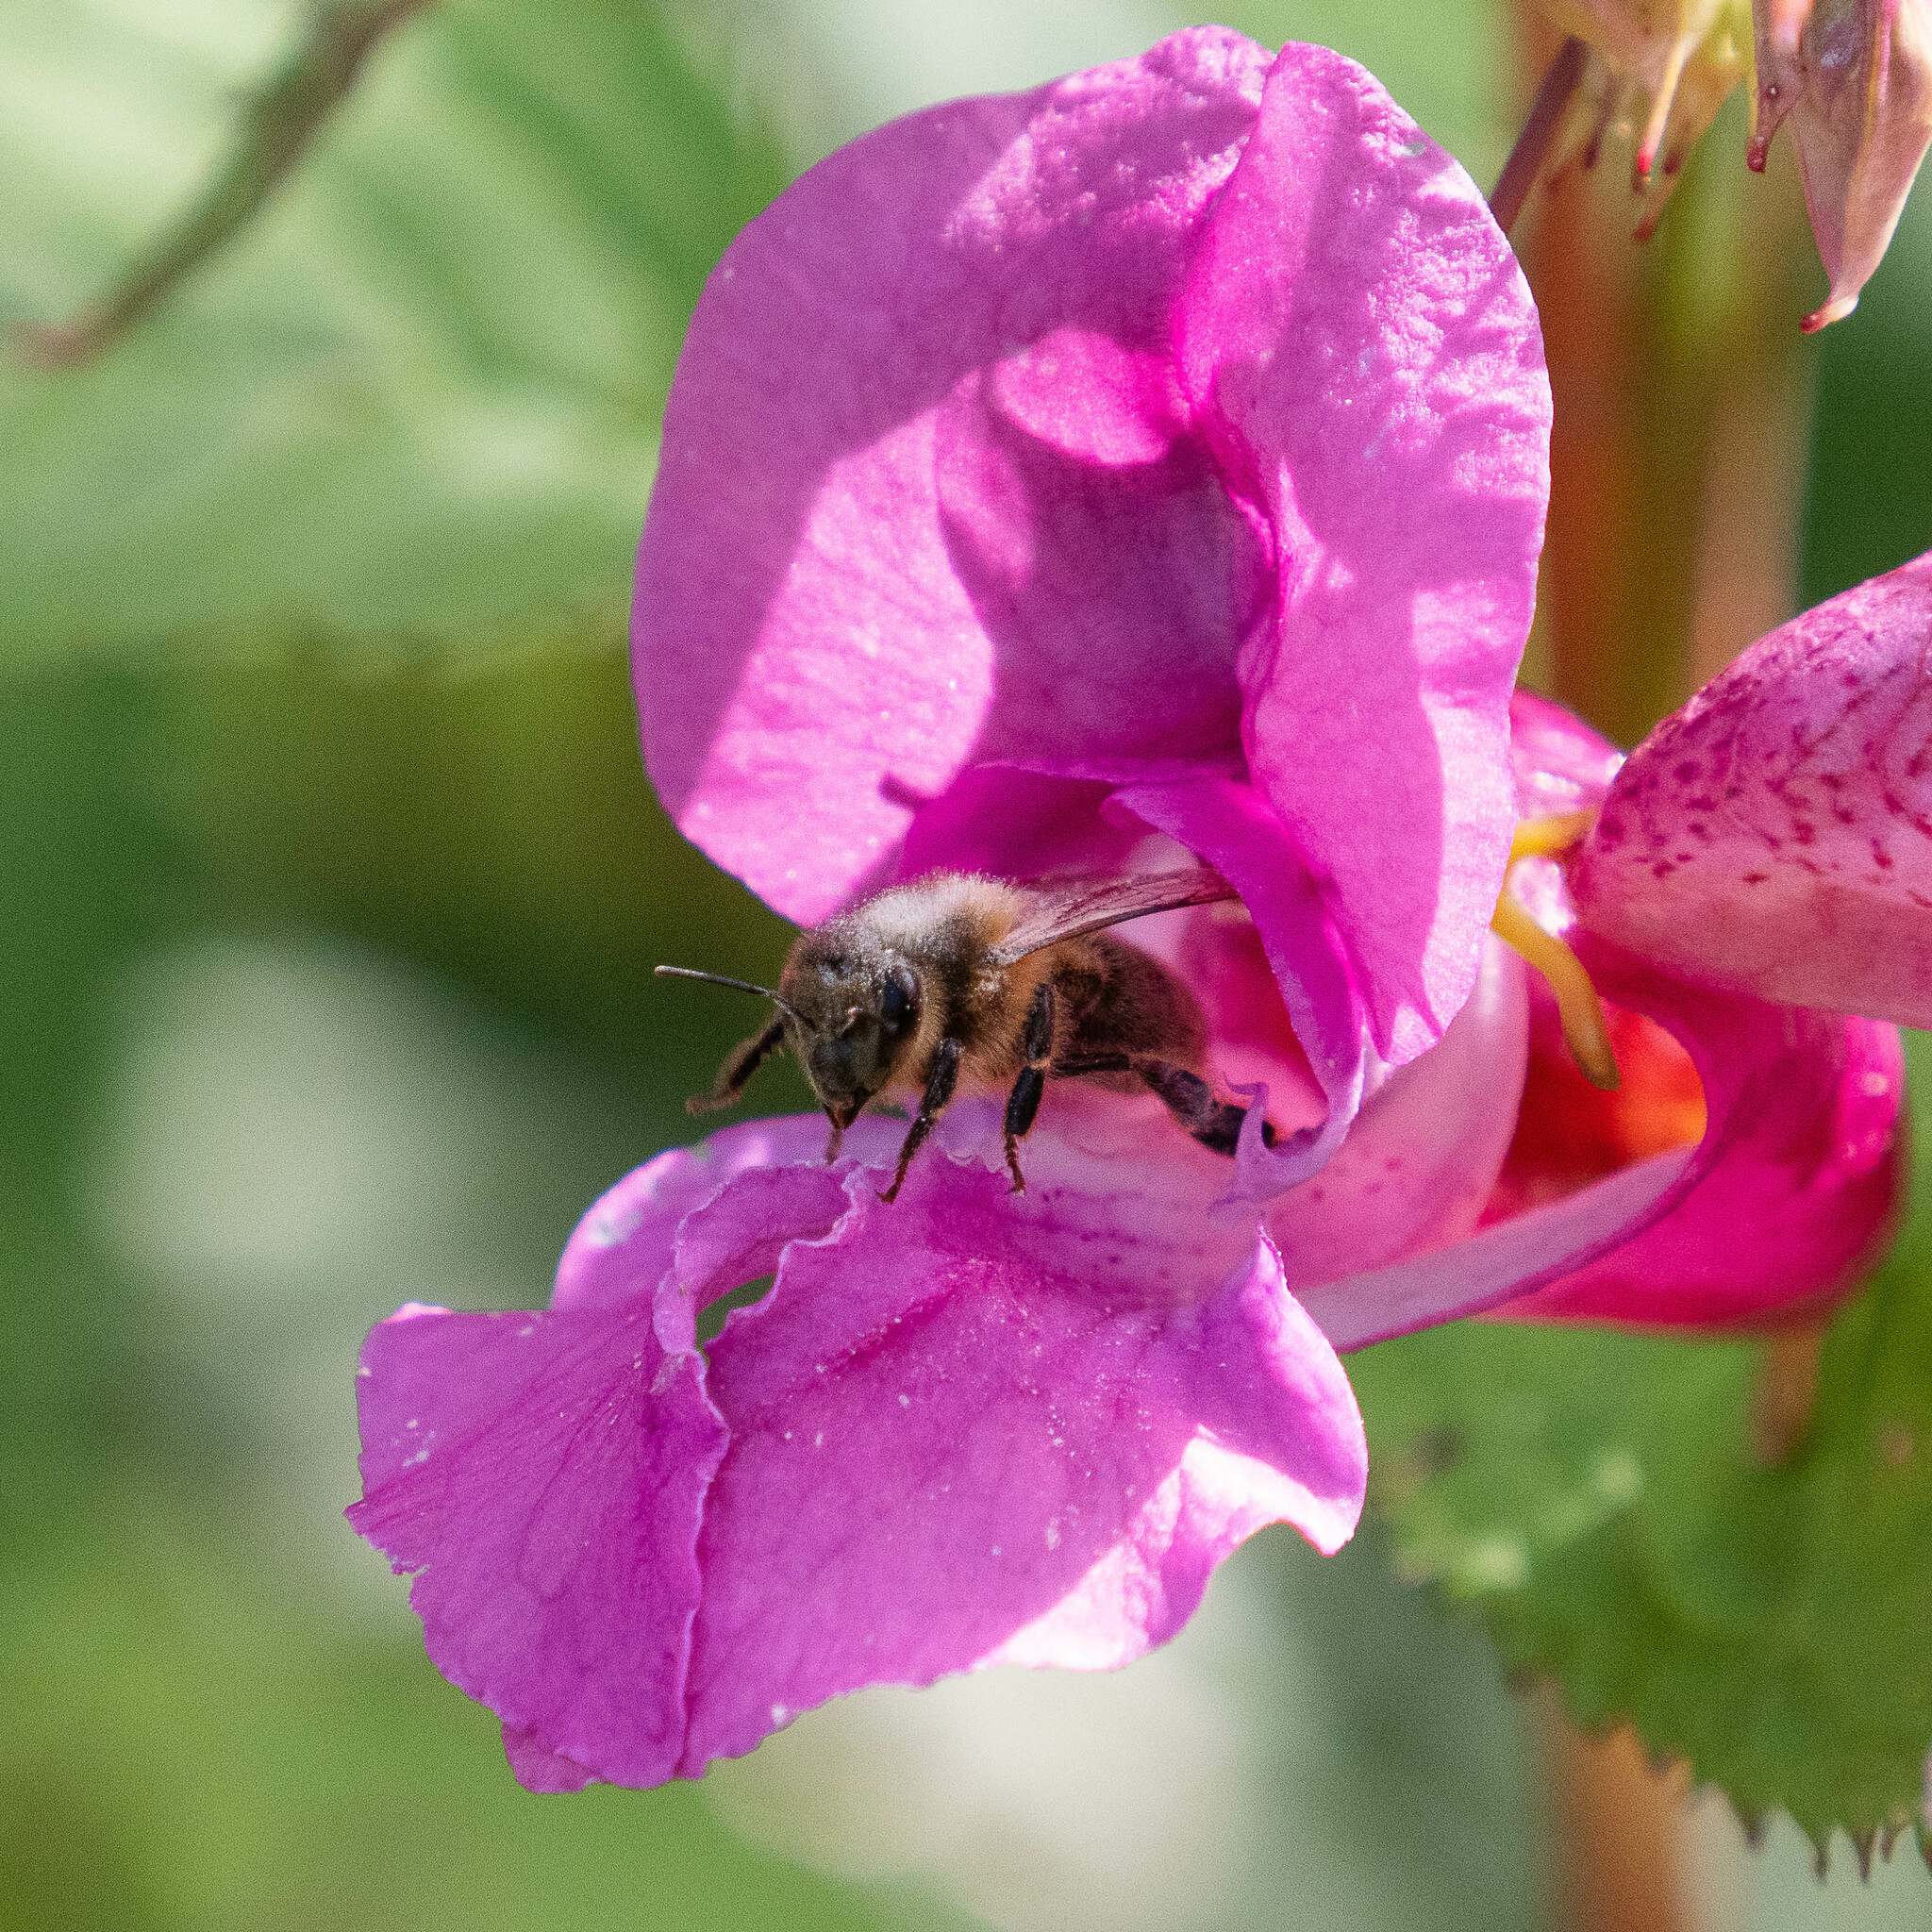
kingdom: Animalia
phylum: Arthropoda
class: Insecta
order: Hymenoptera
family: Apidae
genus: Apis
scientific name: Apis mellifera
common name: Honey bee
